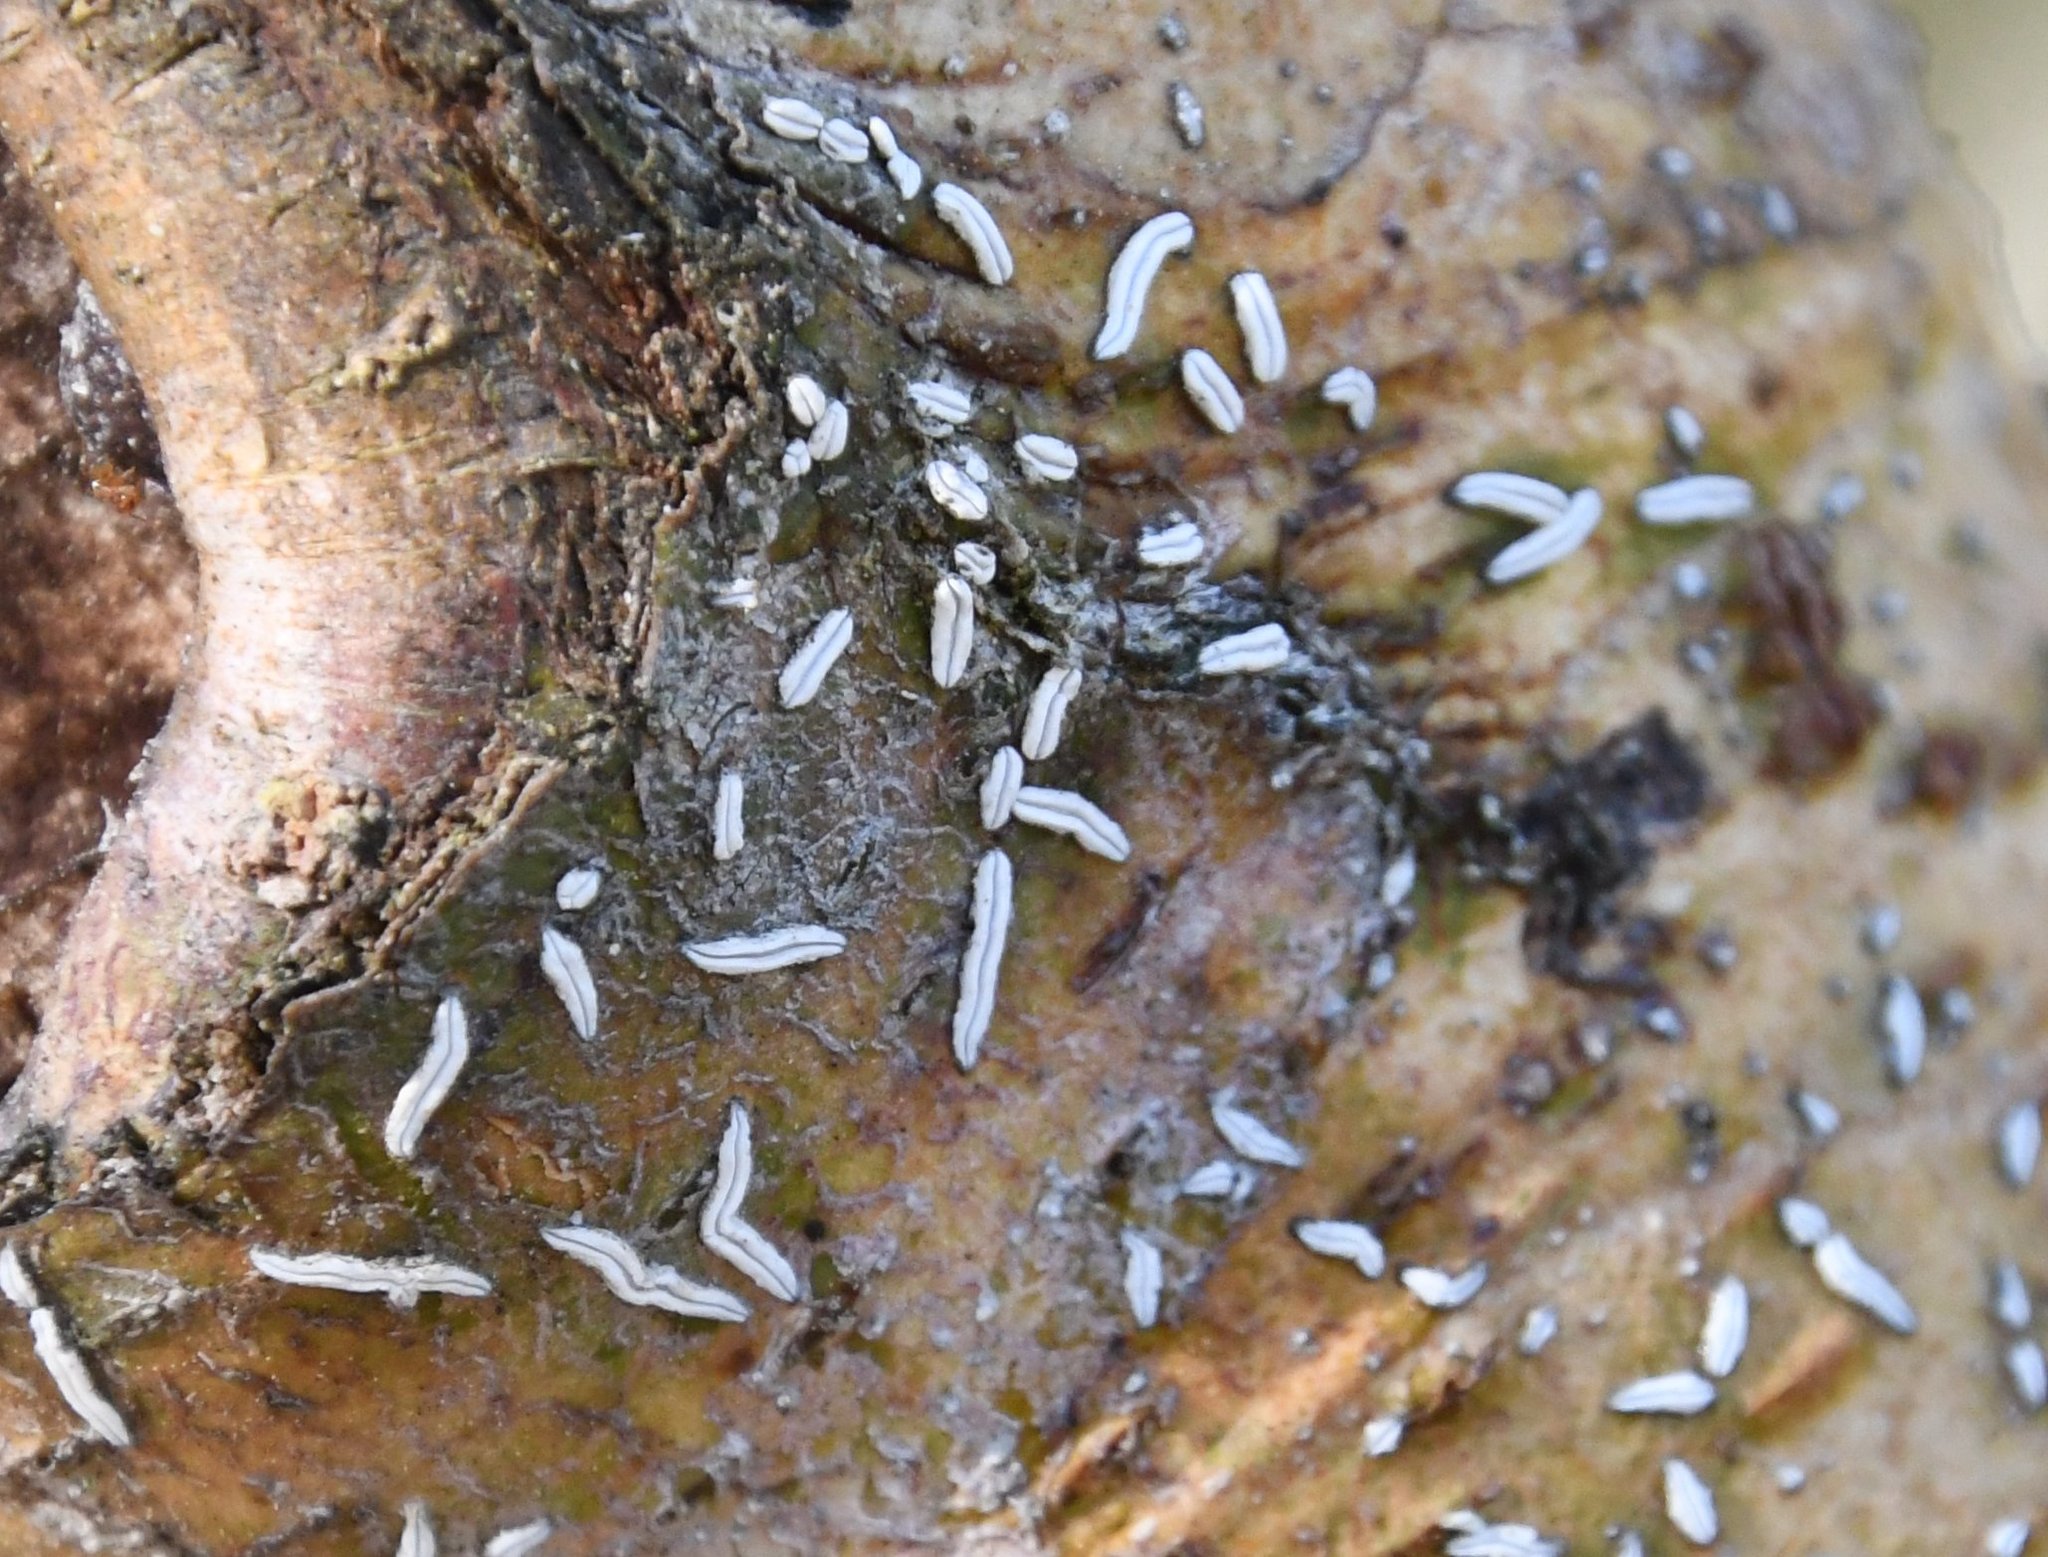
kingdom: Fungi
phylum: Ascomycota
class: Lecanoromycetes
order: Ostropales
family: Graphidaceae
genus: Dyplolabia
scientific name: Dyplolabia afzelii
